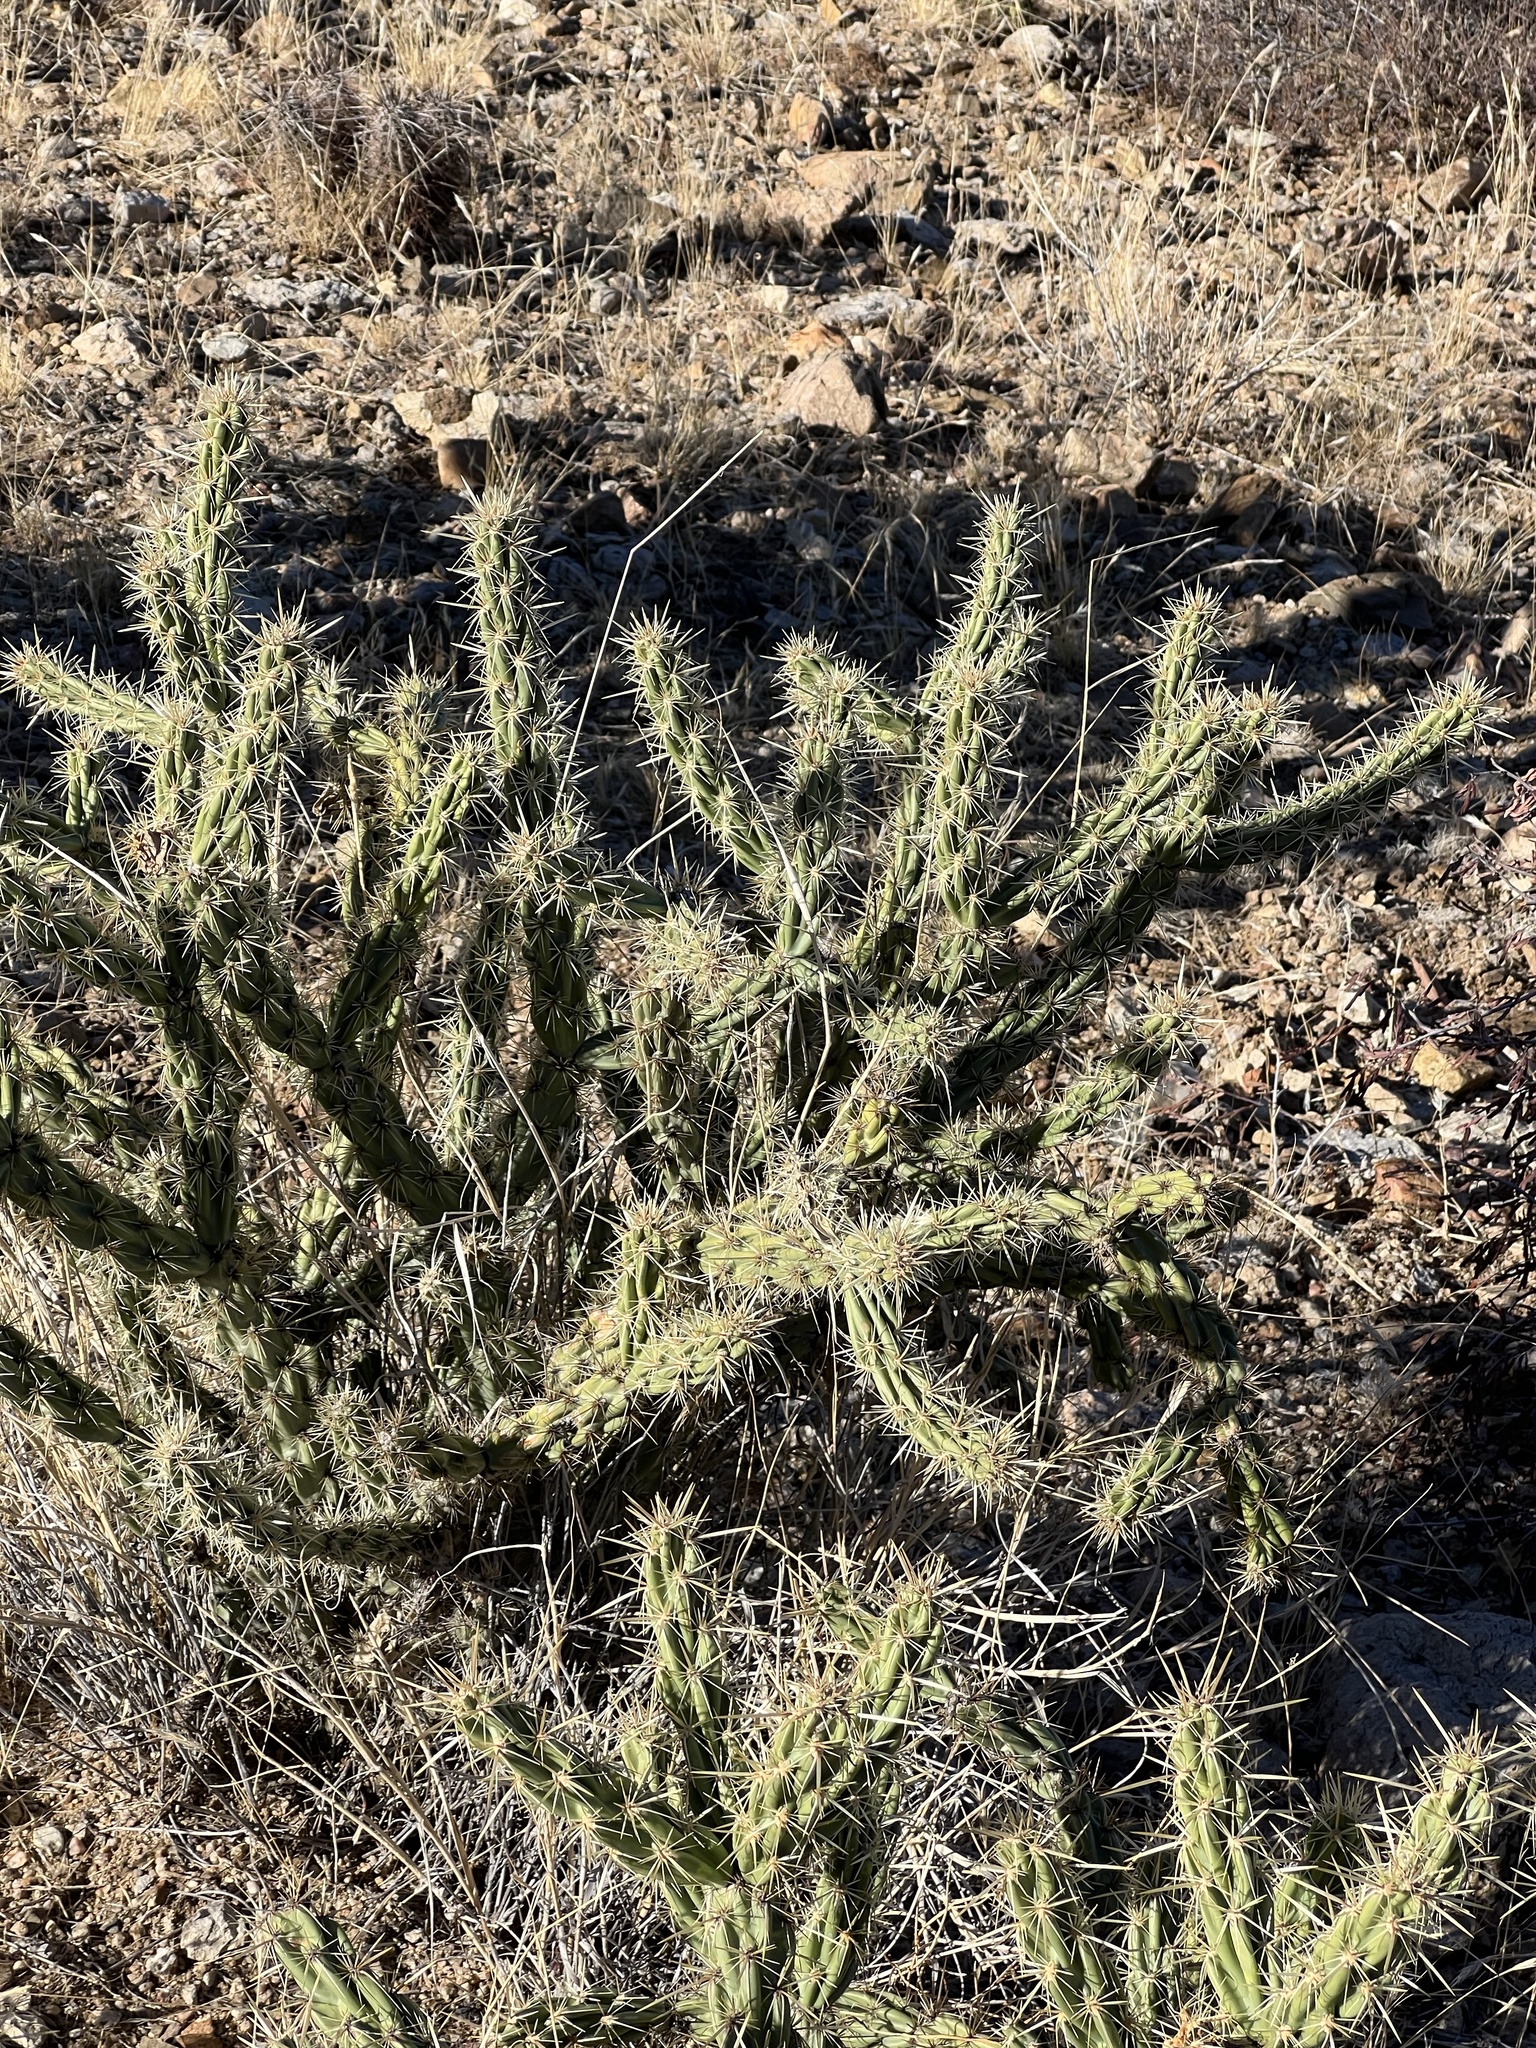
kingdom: Plantae
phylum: Tracheophyta
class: Magnoliopsida
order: Caryophyllales
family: Cactaceae
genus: Cylindropuntia
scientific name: Cylindropuntia acanthocarpa
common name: Buckhorn cholla
